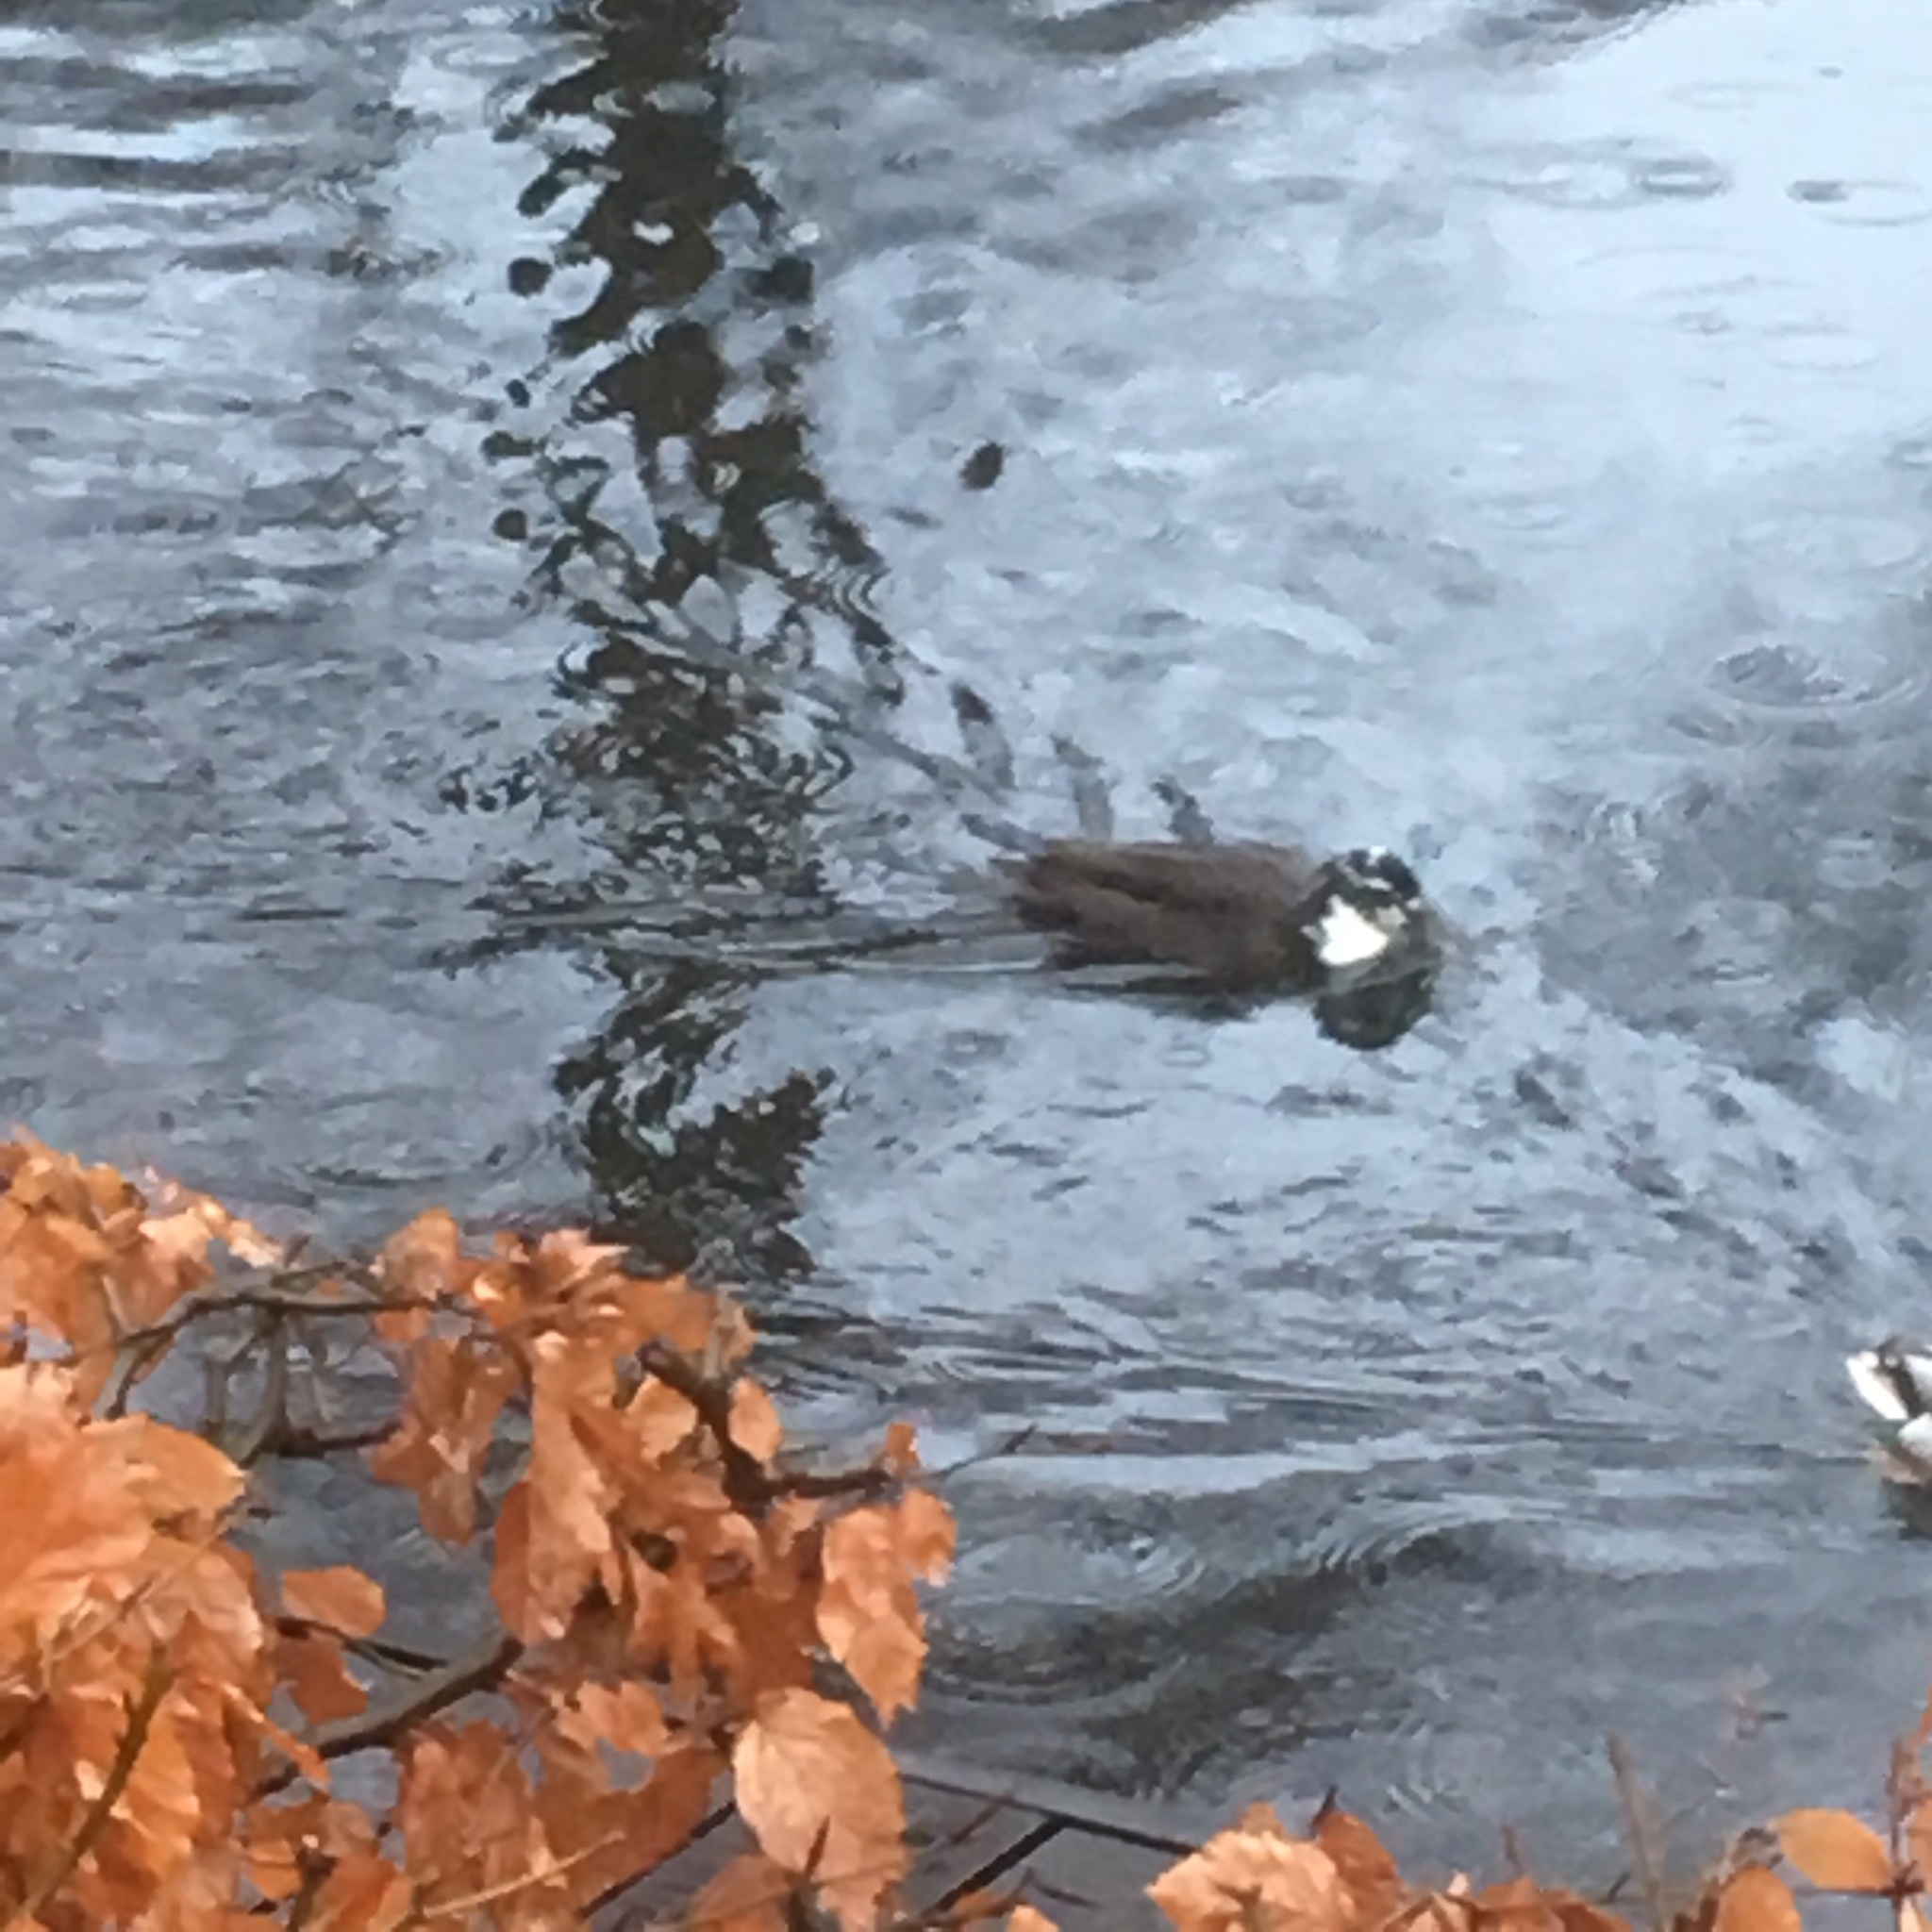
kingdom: Animalia
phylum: Chordata
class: Aves
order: Anseriformes
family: Anatidae
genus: Anas
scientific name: Anas platyrhynchos
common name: Mallard
